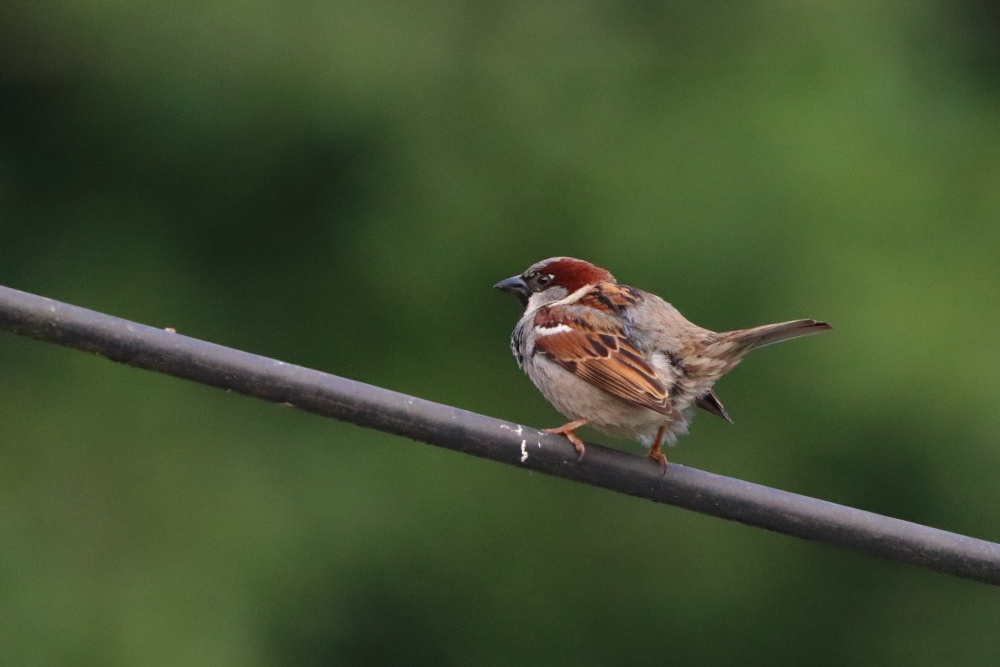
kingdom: Animalia
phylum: Chordata
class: Aves
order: Passeriformes
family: Passeridae
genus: Passer
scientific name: Passer domesticus
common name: House sparrow
